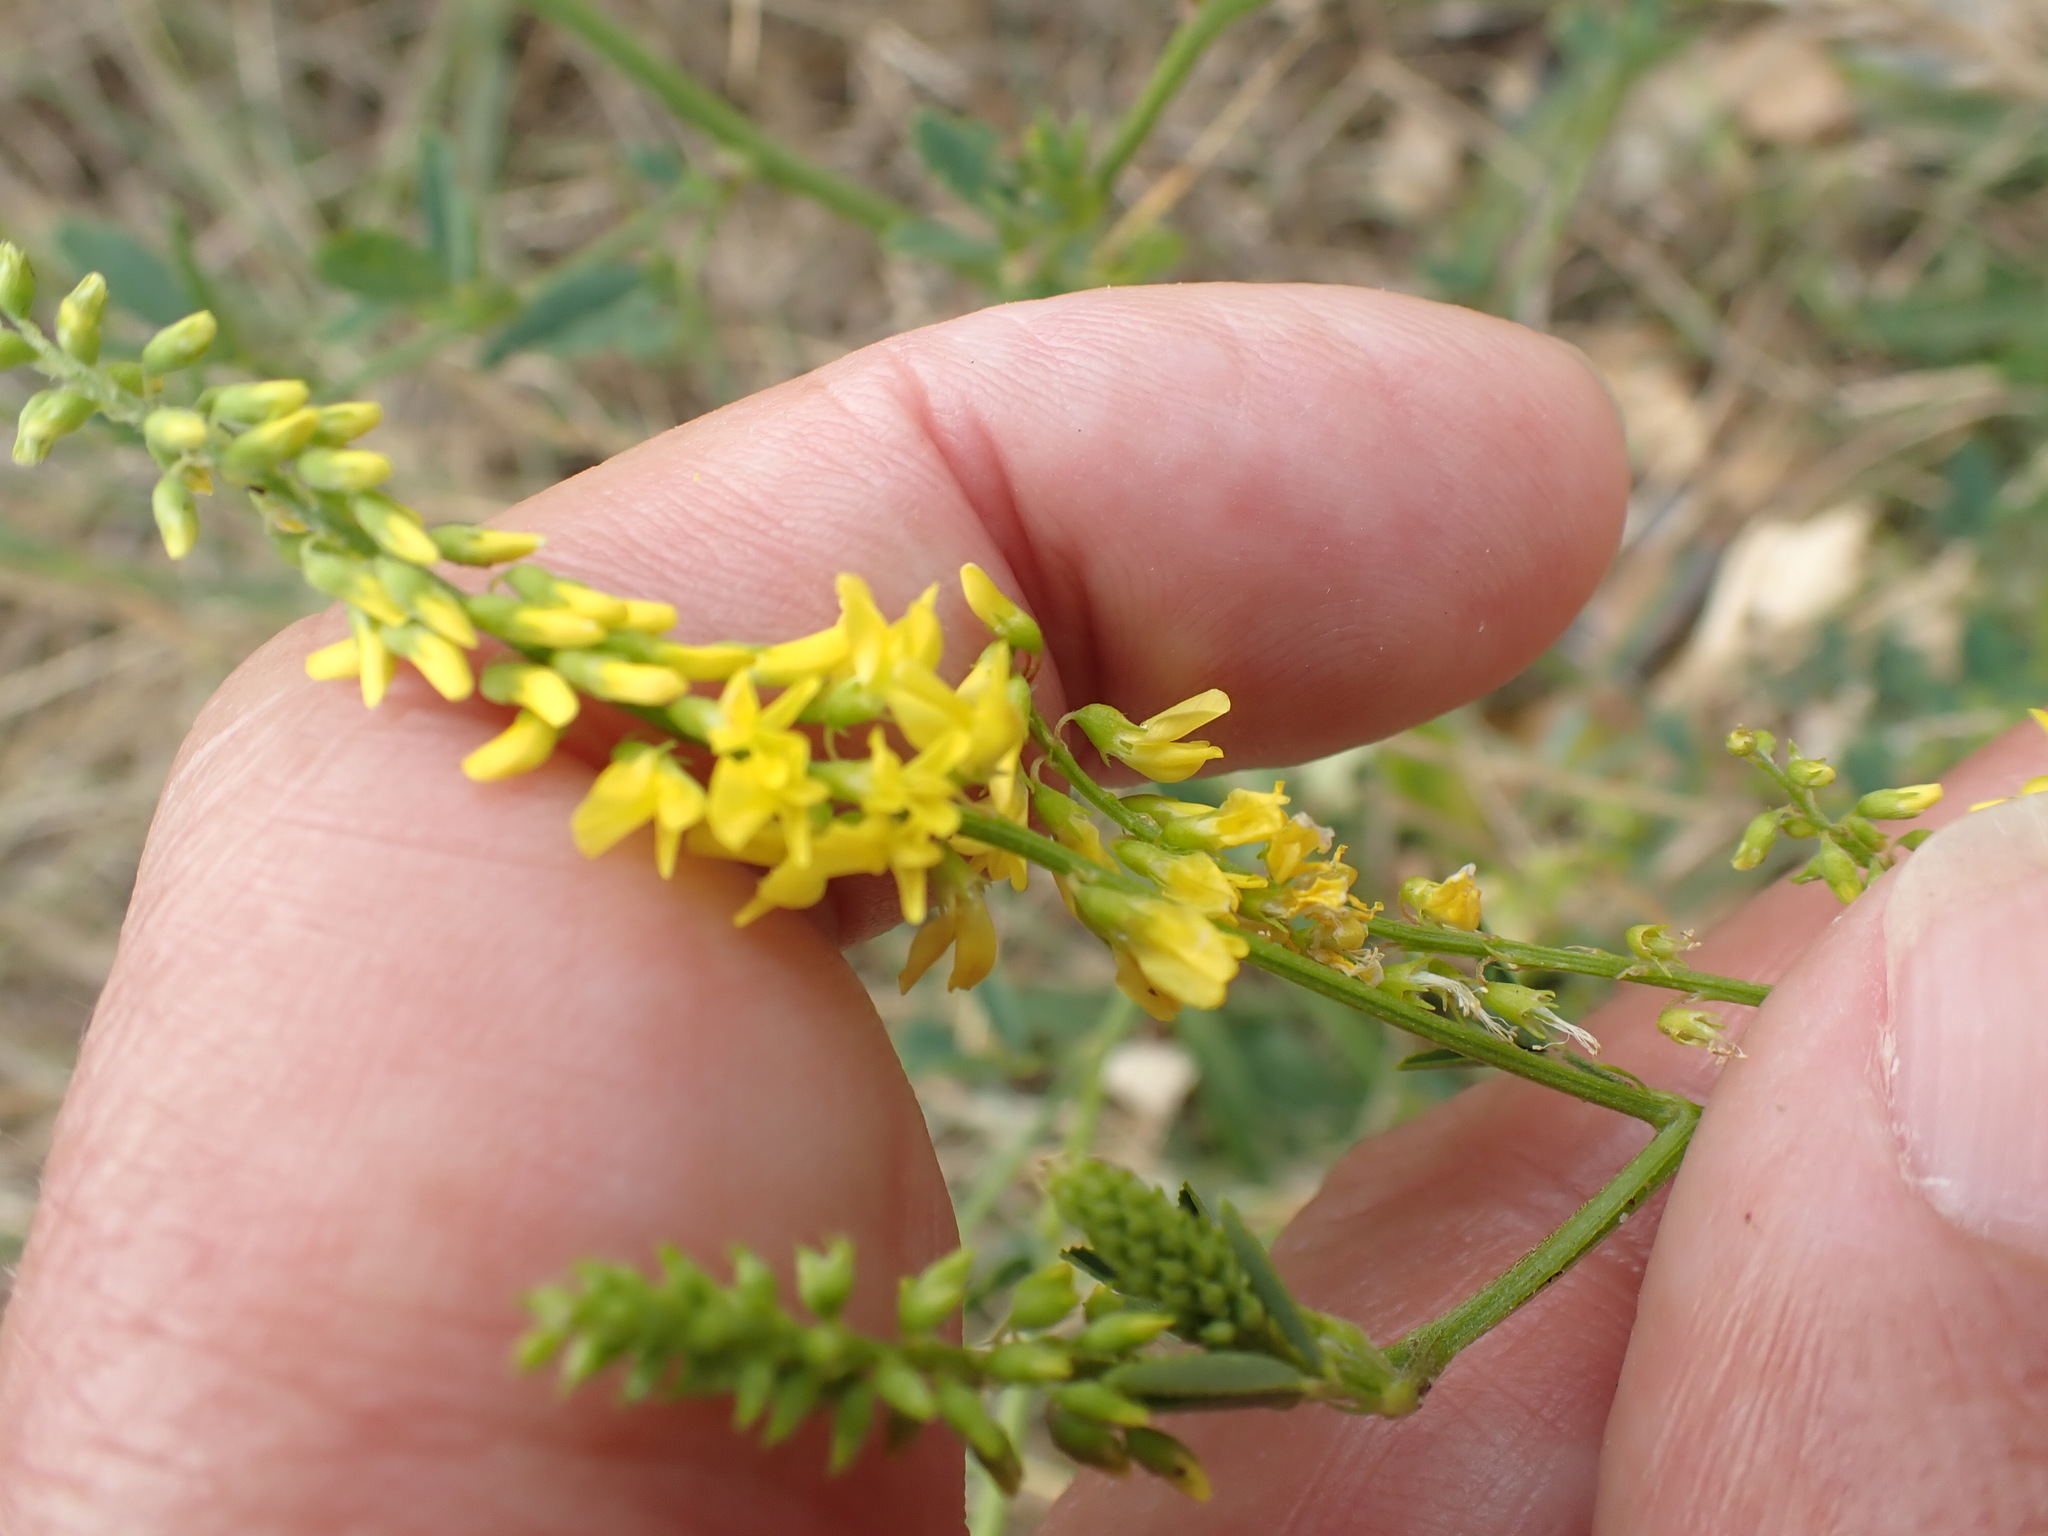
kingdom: Plantae
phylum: Tracheophyta
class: Magnoliopsida
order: Fabales
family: Fabaceae
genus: Melilotus
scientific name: Melilotus altissimus
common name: Tall melilot
